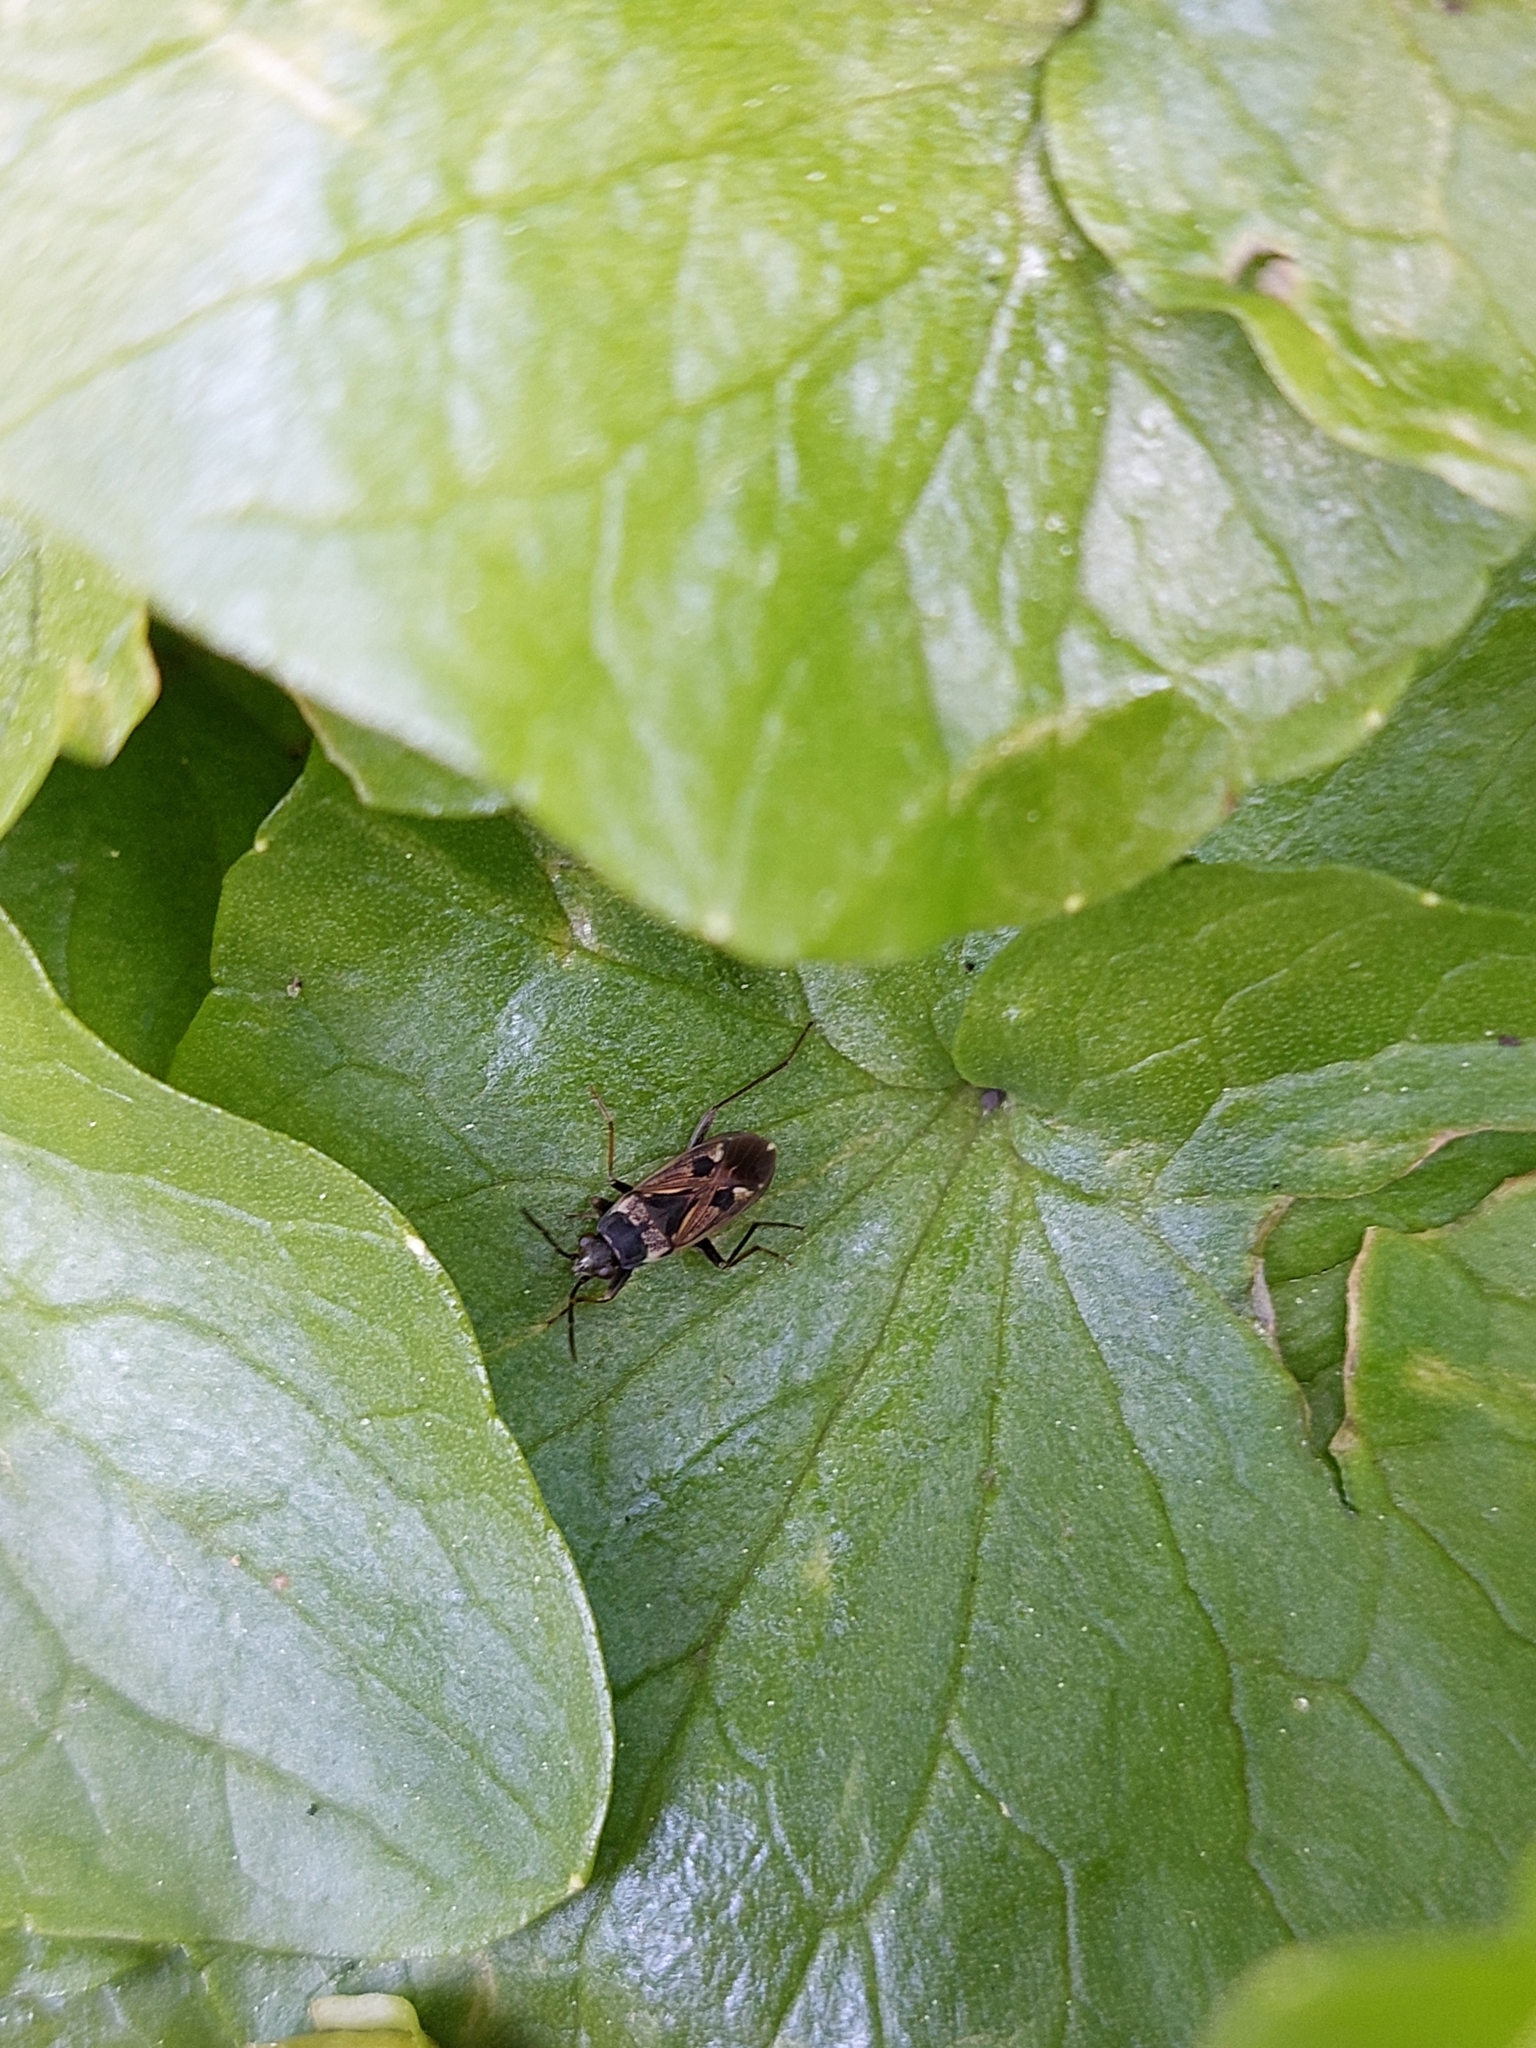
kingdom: Animalia
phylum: Arthropoda
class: Insecta
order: Hemiptera
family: Rhyparochromidae
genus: Rhyparochromus
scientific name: Rhyparochromus vulgaris
